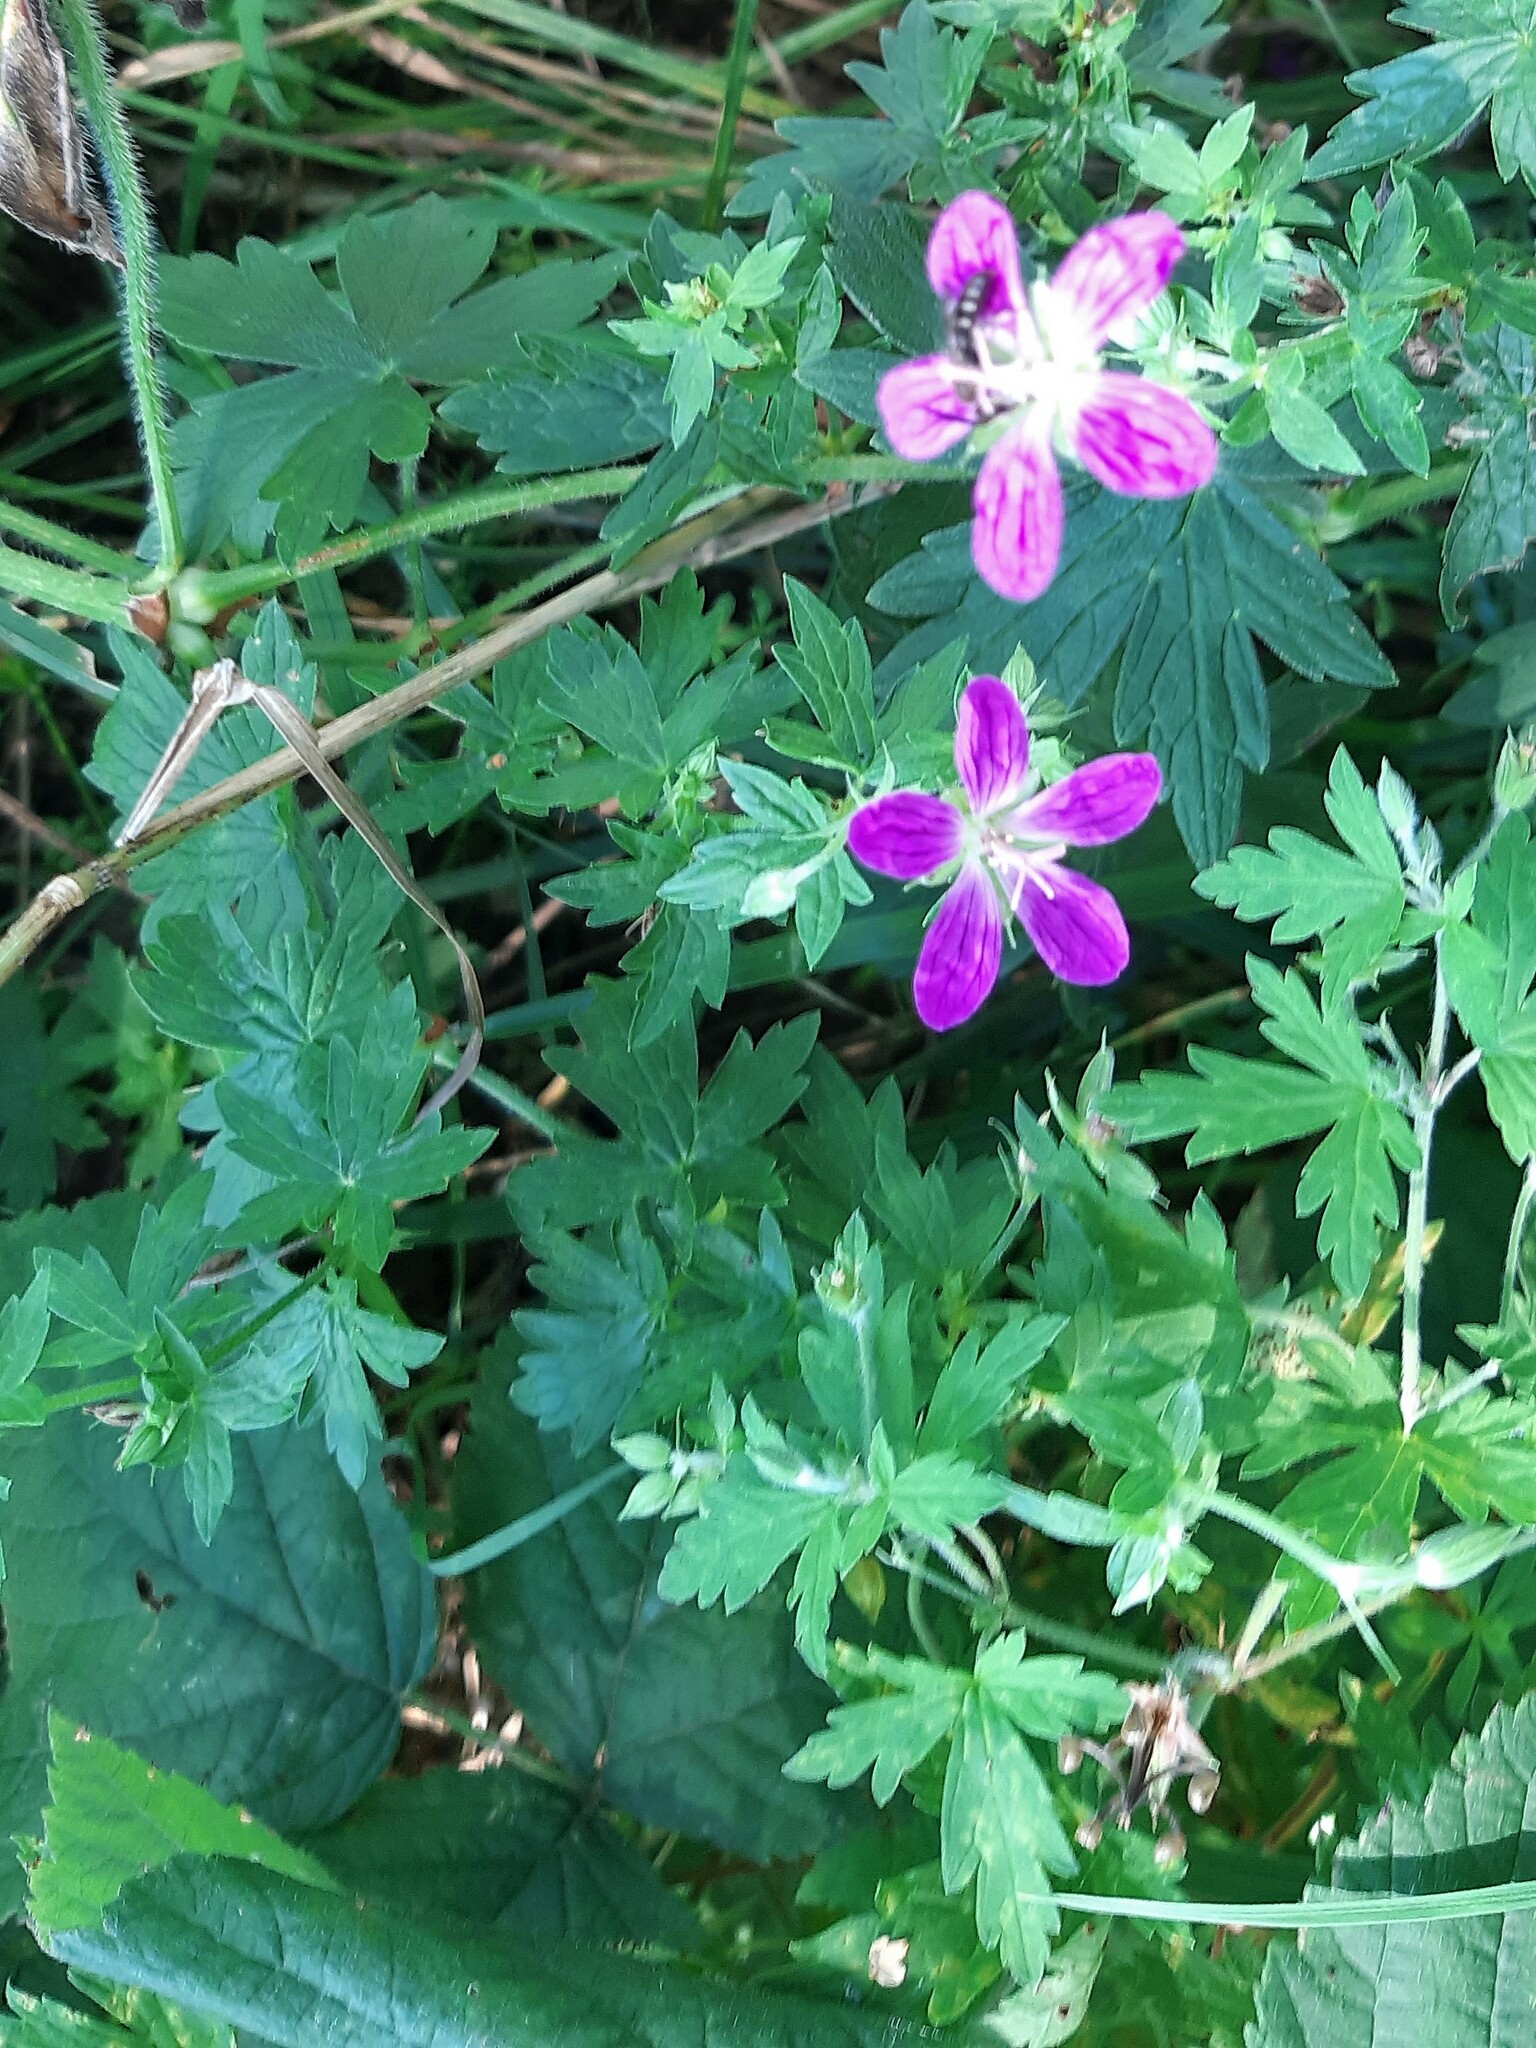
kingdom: Plantae
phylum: Tracheophyta
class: Magnoliopsida
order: Geraniales
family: Geraniaceae
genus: Geranium
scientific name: Geranium palustre
